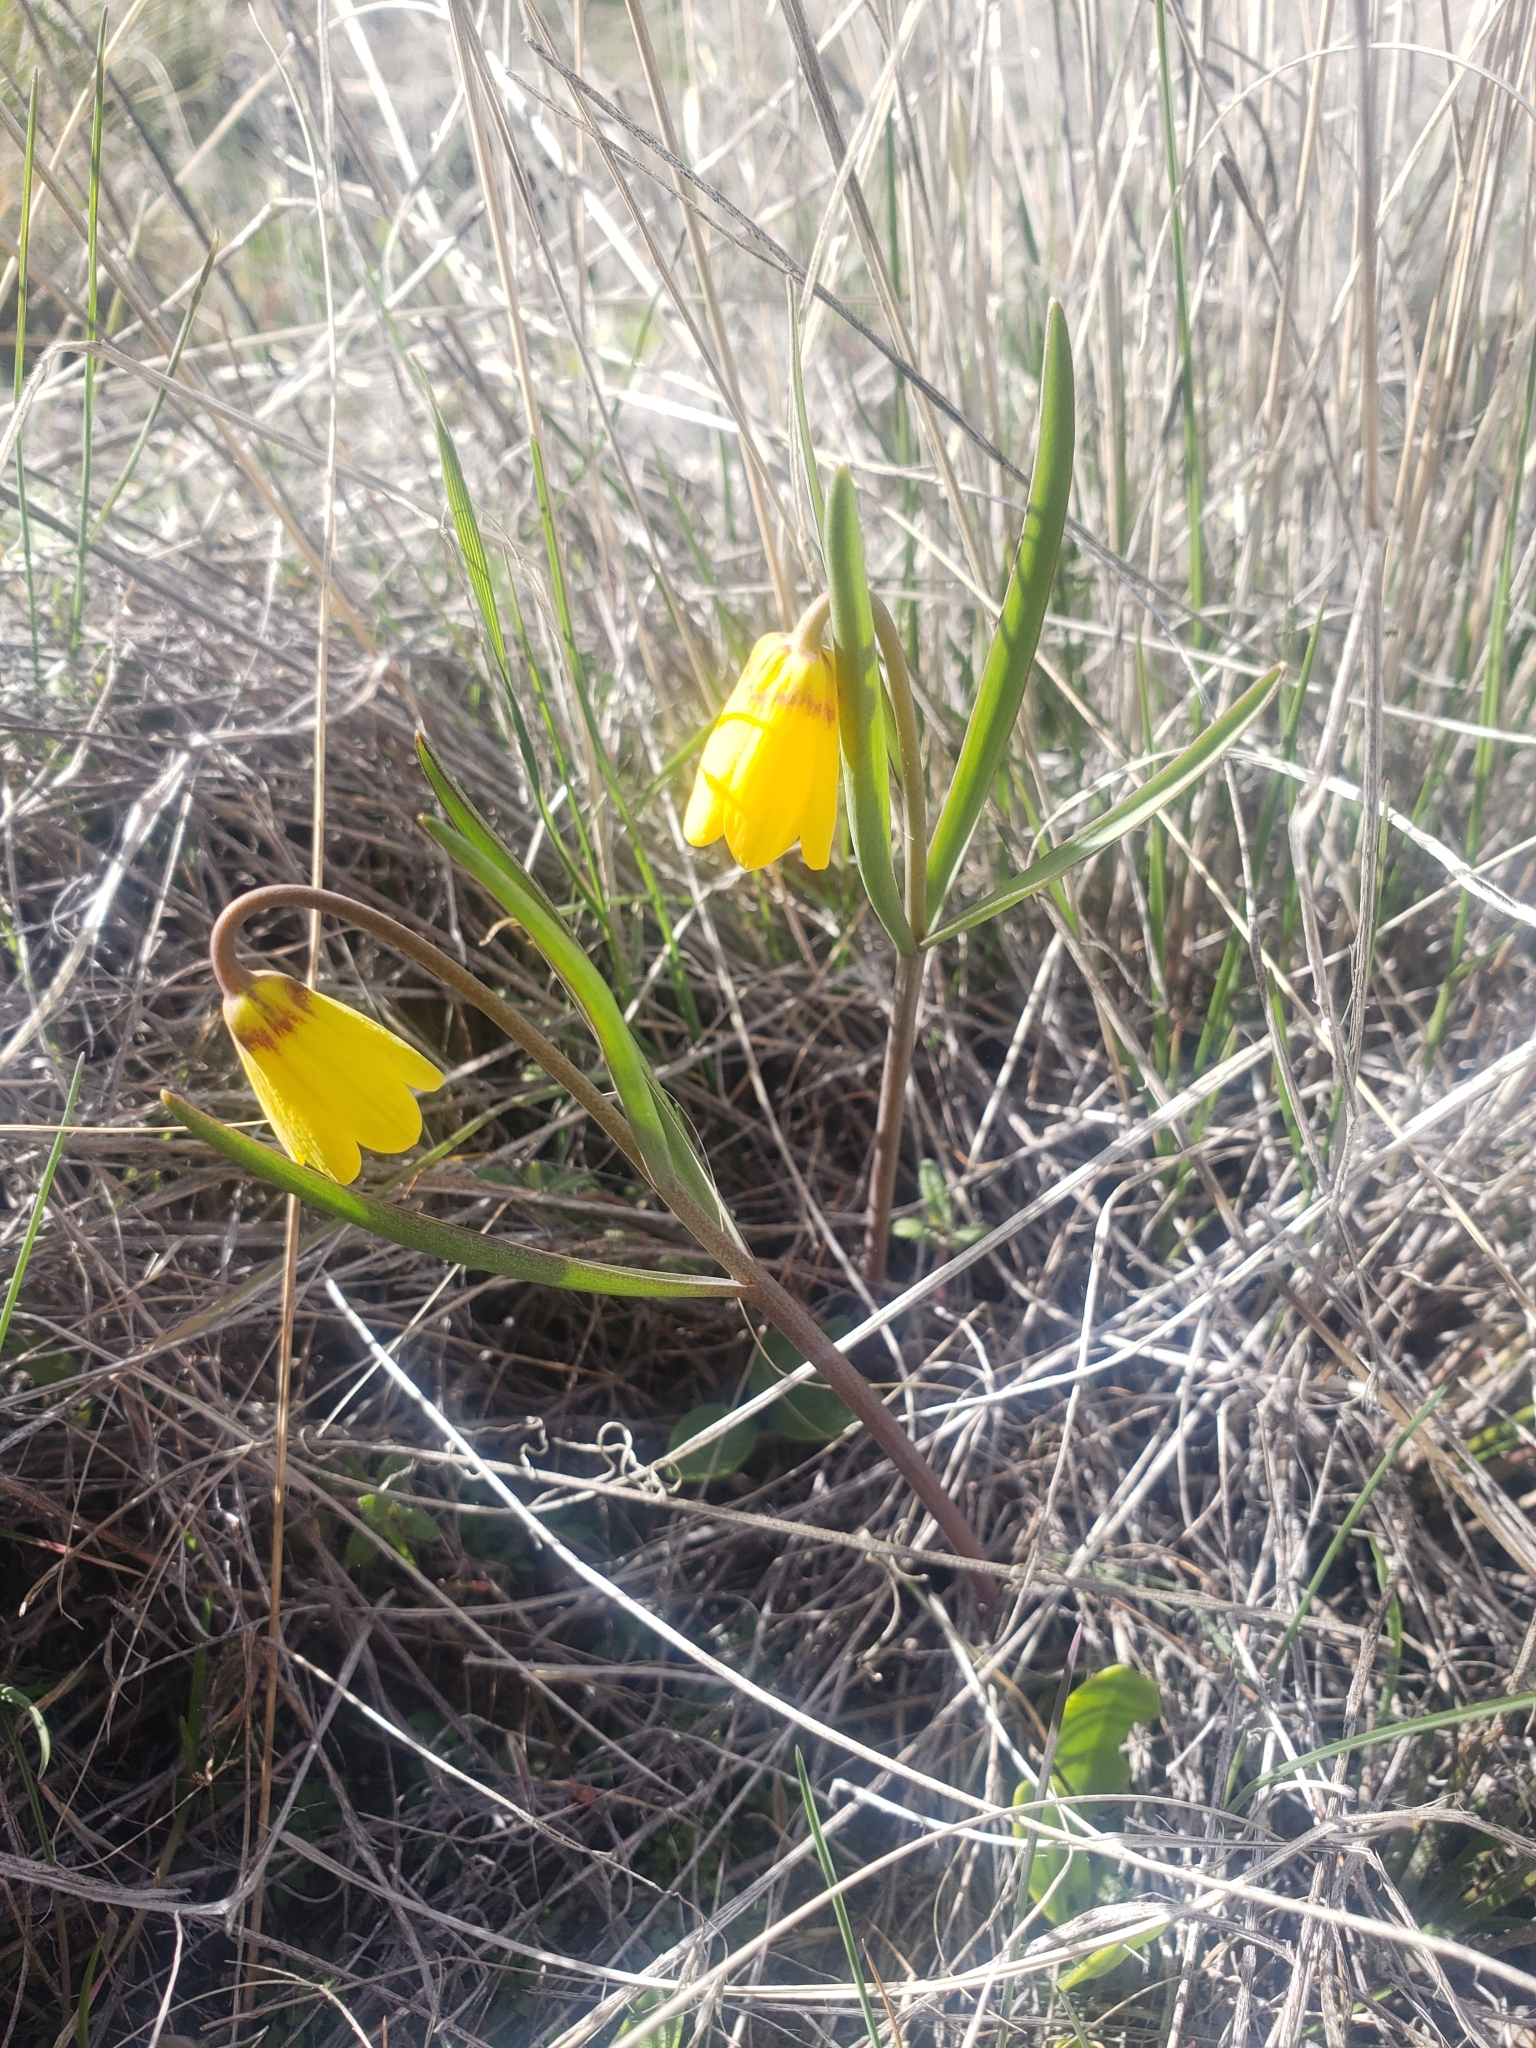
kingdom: Plantae
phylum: Tracheophyta
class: Liliopsida
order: Liliales
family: Liliaceae
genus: Fritillaria
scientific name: Fritillaria pudica
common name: Yellow fritillary
